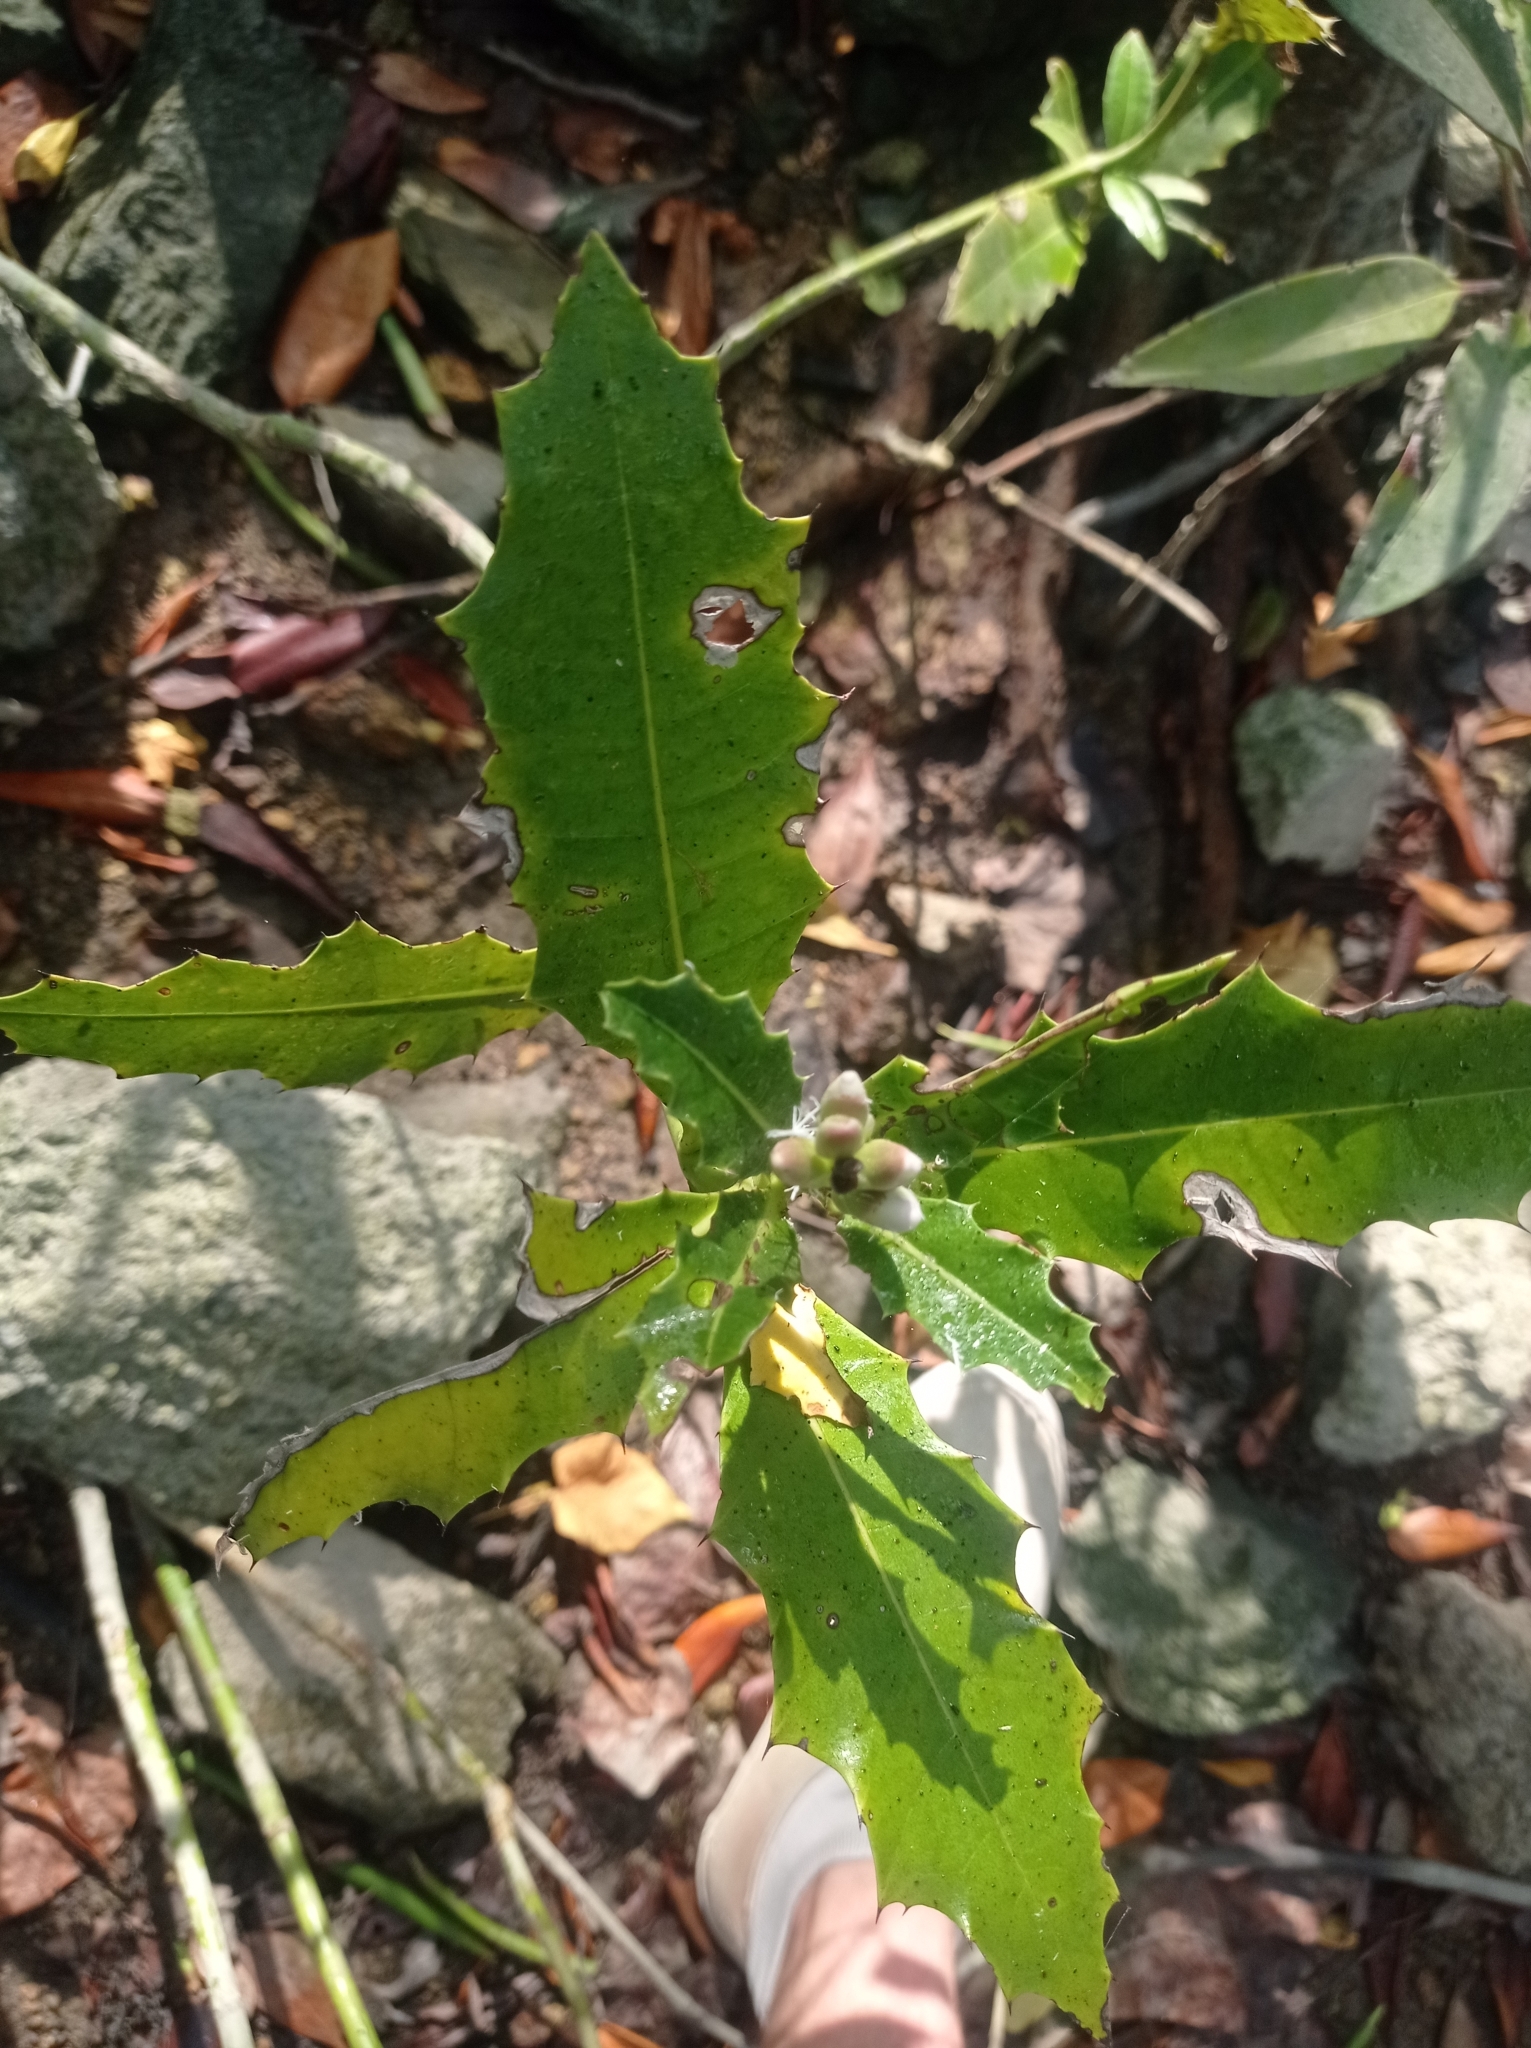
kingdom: Plantae
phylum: Tracheophyta
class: Magnoliopsida
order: Lamiales
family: Acanthaceae
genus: Acanthus
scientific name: Acanthus ilicifolius
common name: Holy mangrove
